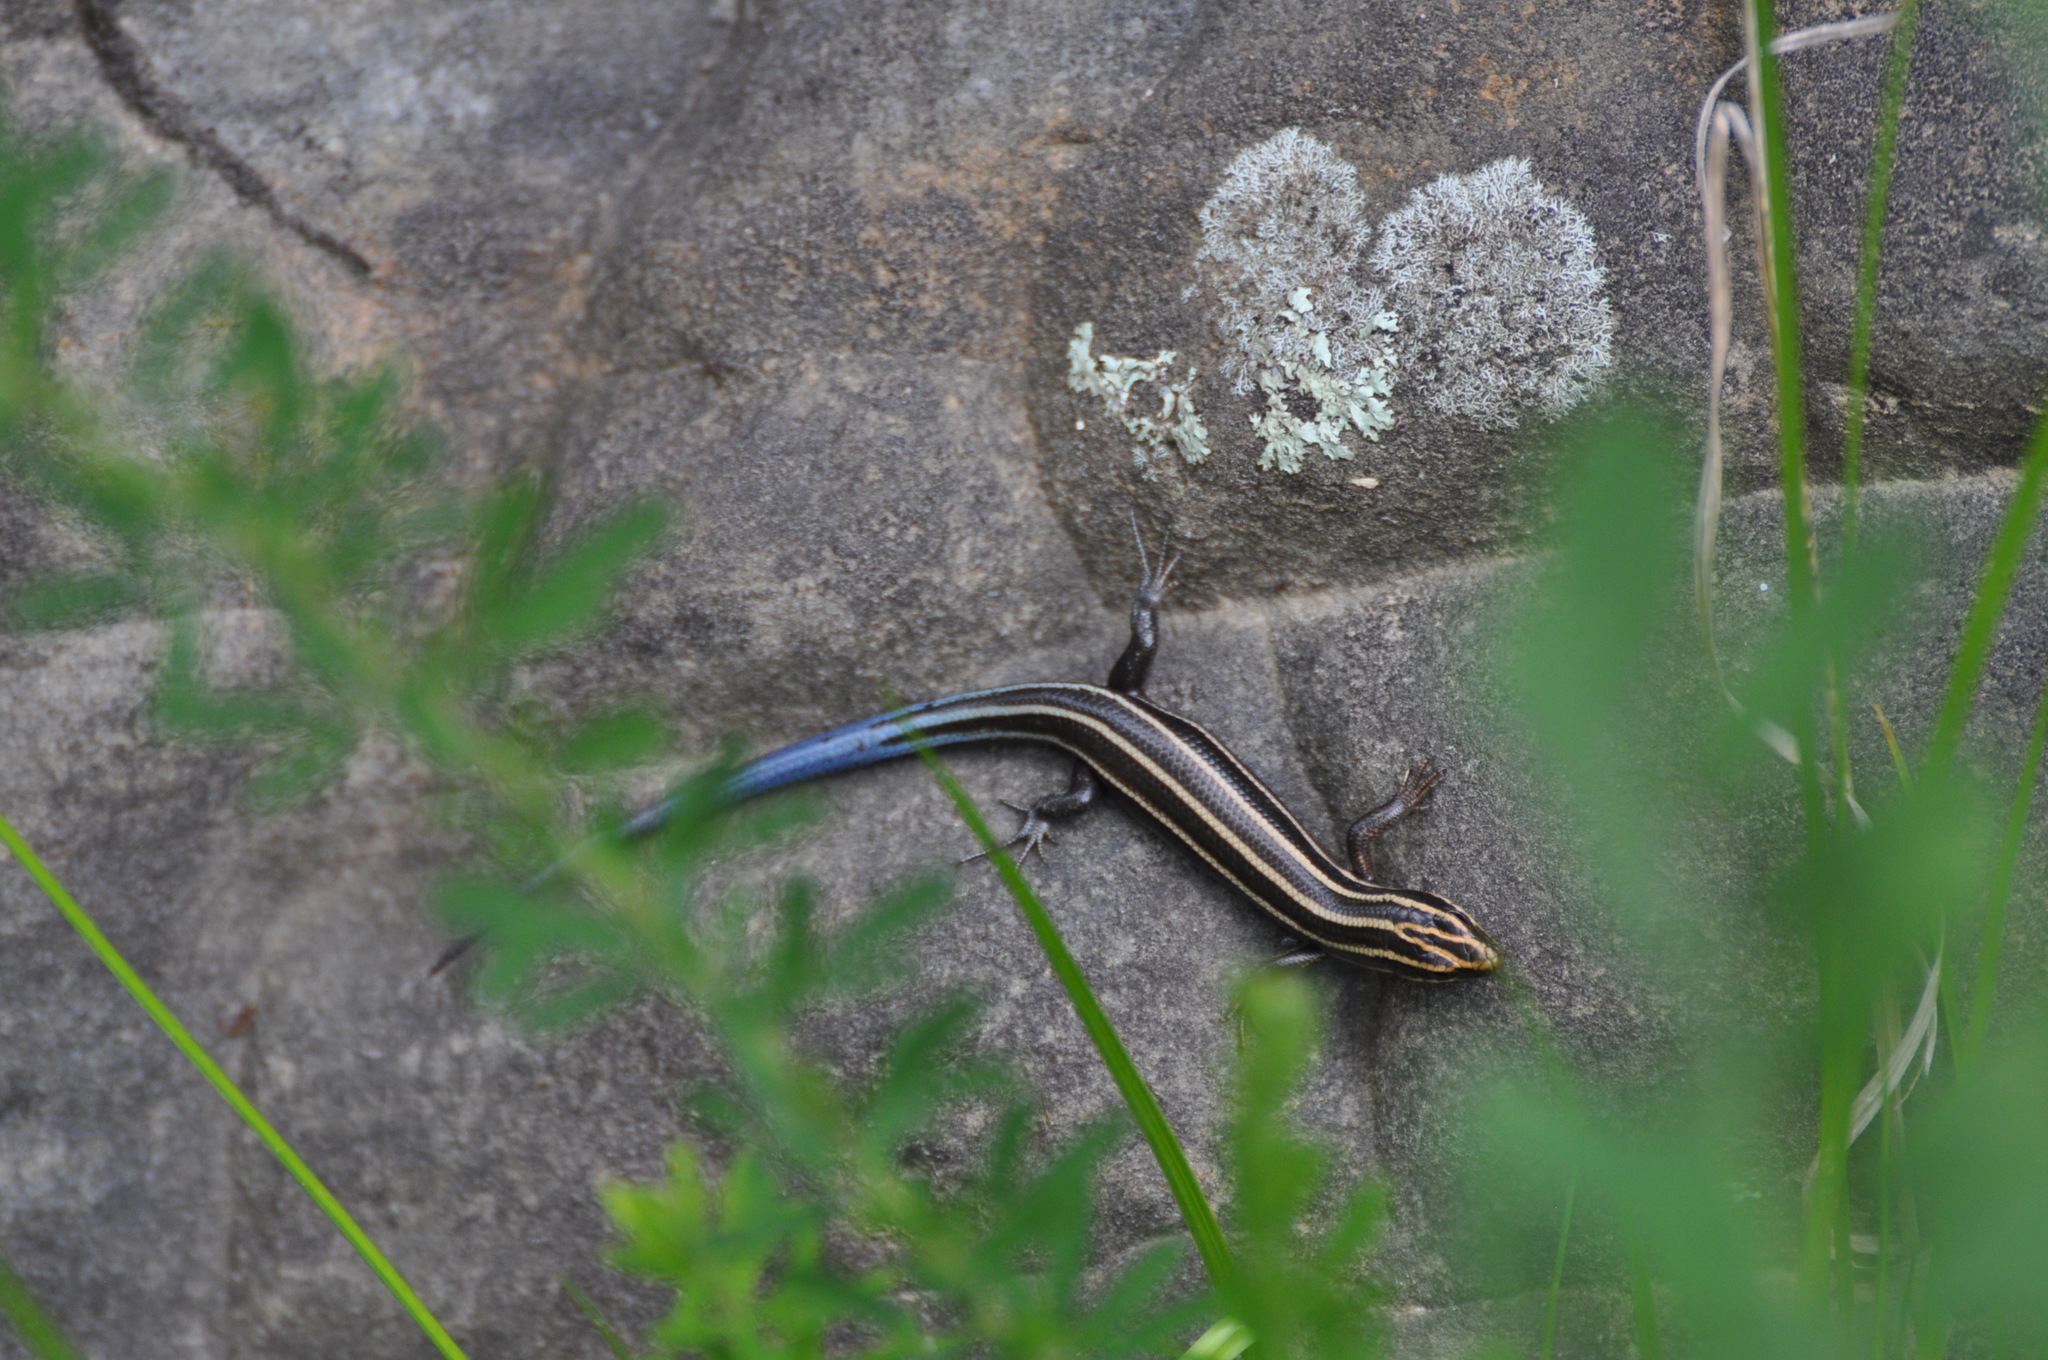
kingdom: Animalia
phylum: Chordata
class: Squamata
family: Scincidae
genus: Plestiodon
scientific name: Plestiodon fasciatus
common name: Five-lined skink
